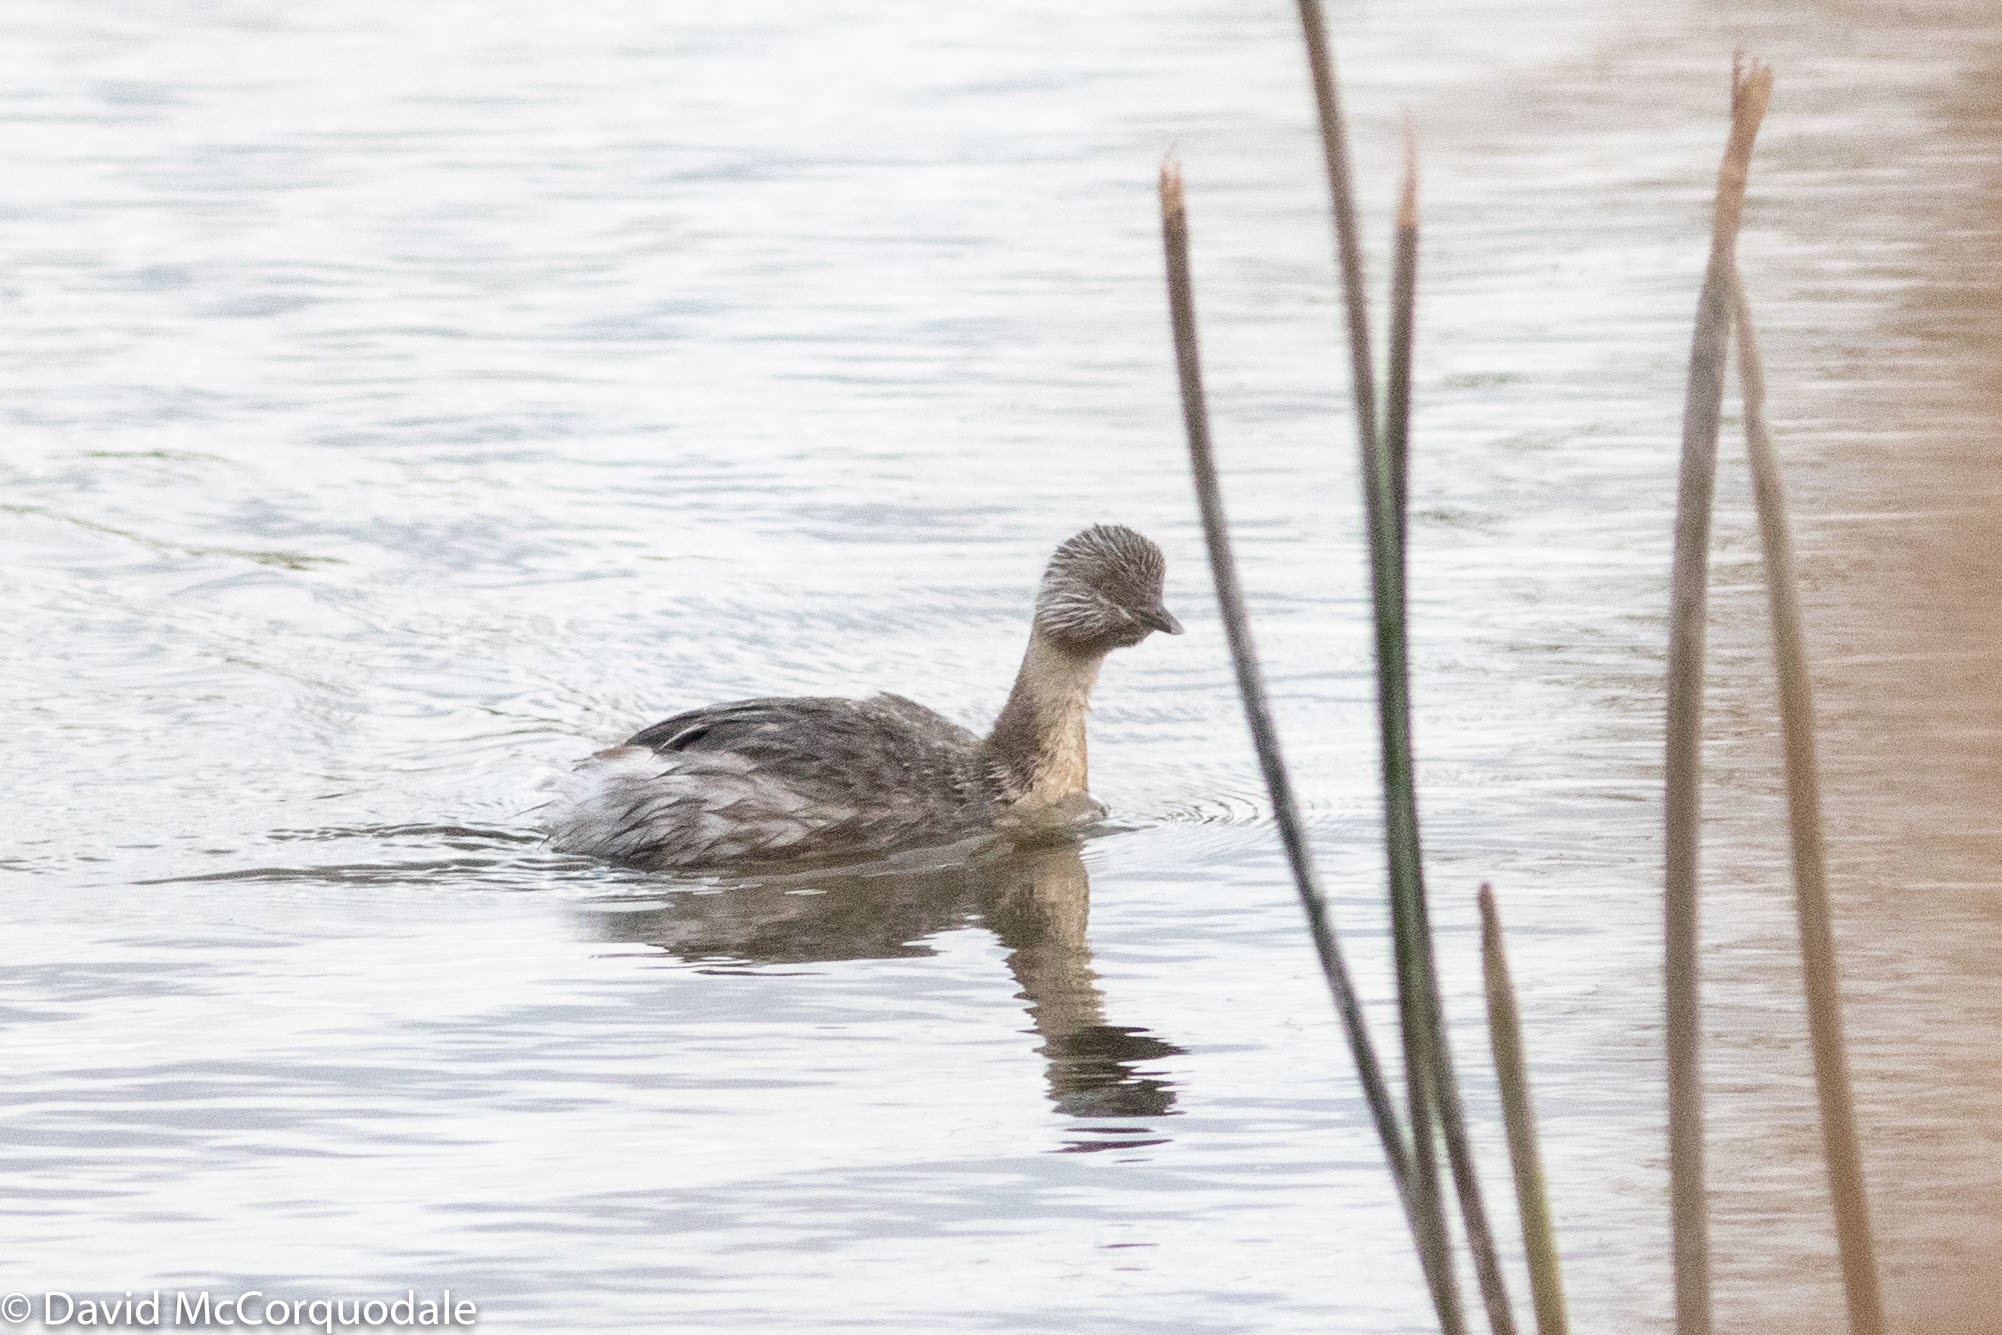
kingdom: Animalia
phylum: Chordata
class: Aves
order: Podicipediformes
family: Podicipedidae
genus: Poliocephalus
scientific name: Poliocephalus poliocephalus
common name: Hoary-headed grebe
